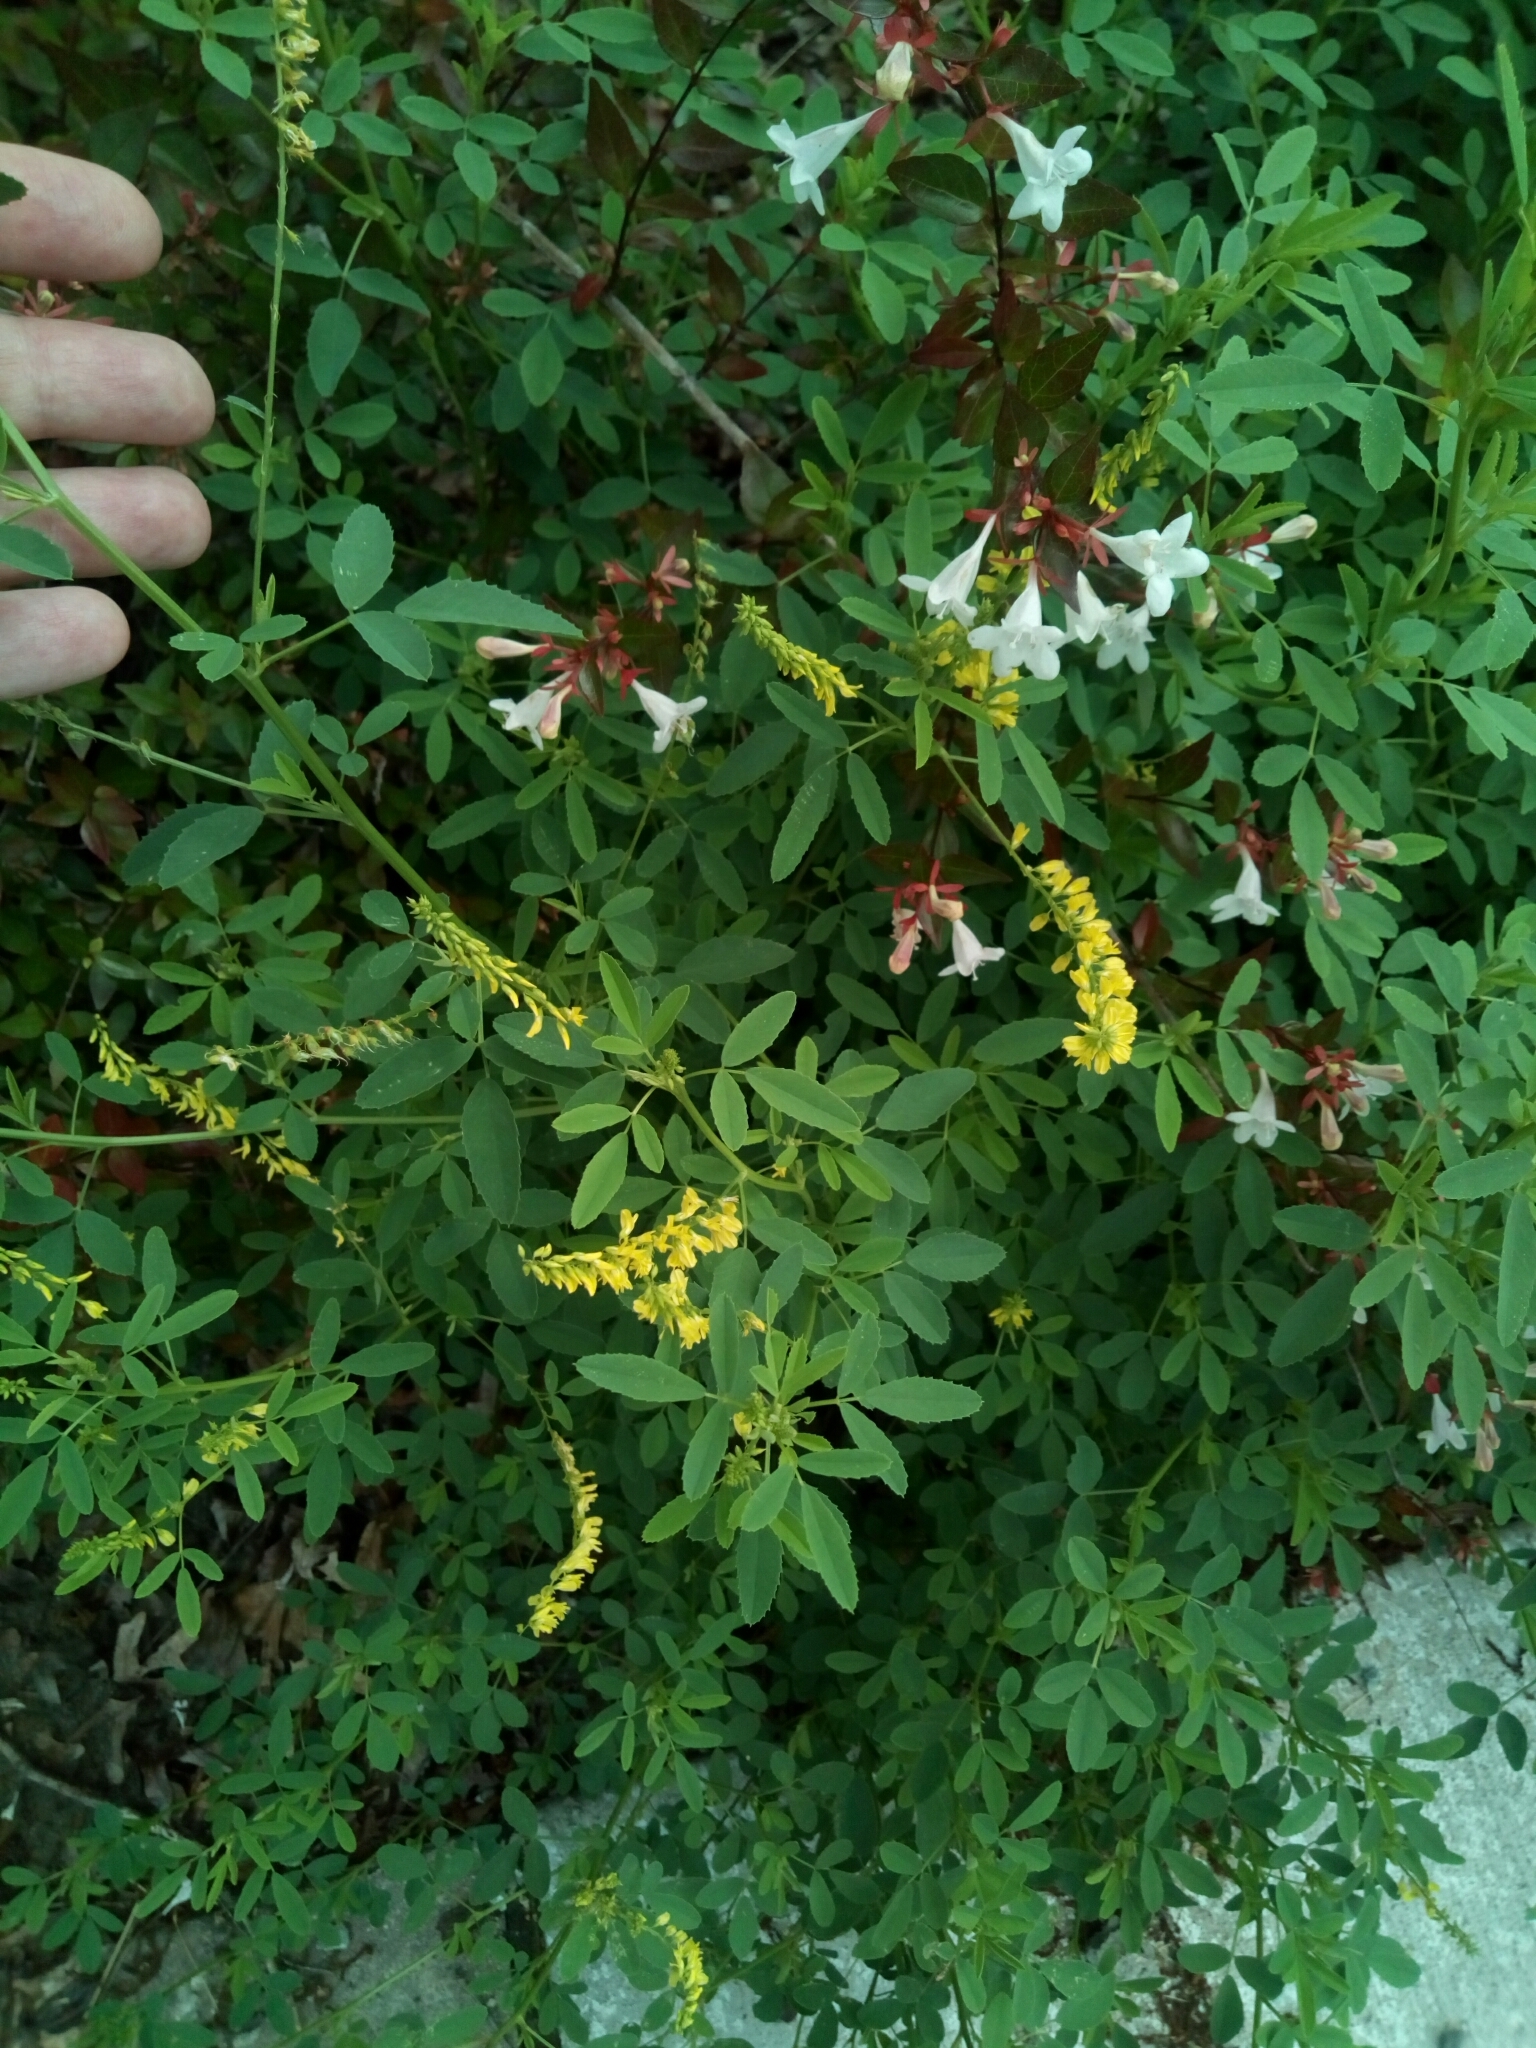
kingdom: Plantae
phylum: Tracheophyta
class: Magnoliopsida
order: Fabales
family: Fabaceae
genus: Melilotus
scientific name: Melilotus officinalis
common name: Sweetclover
